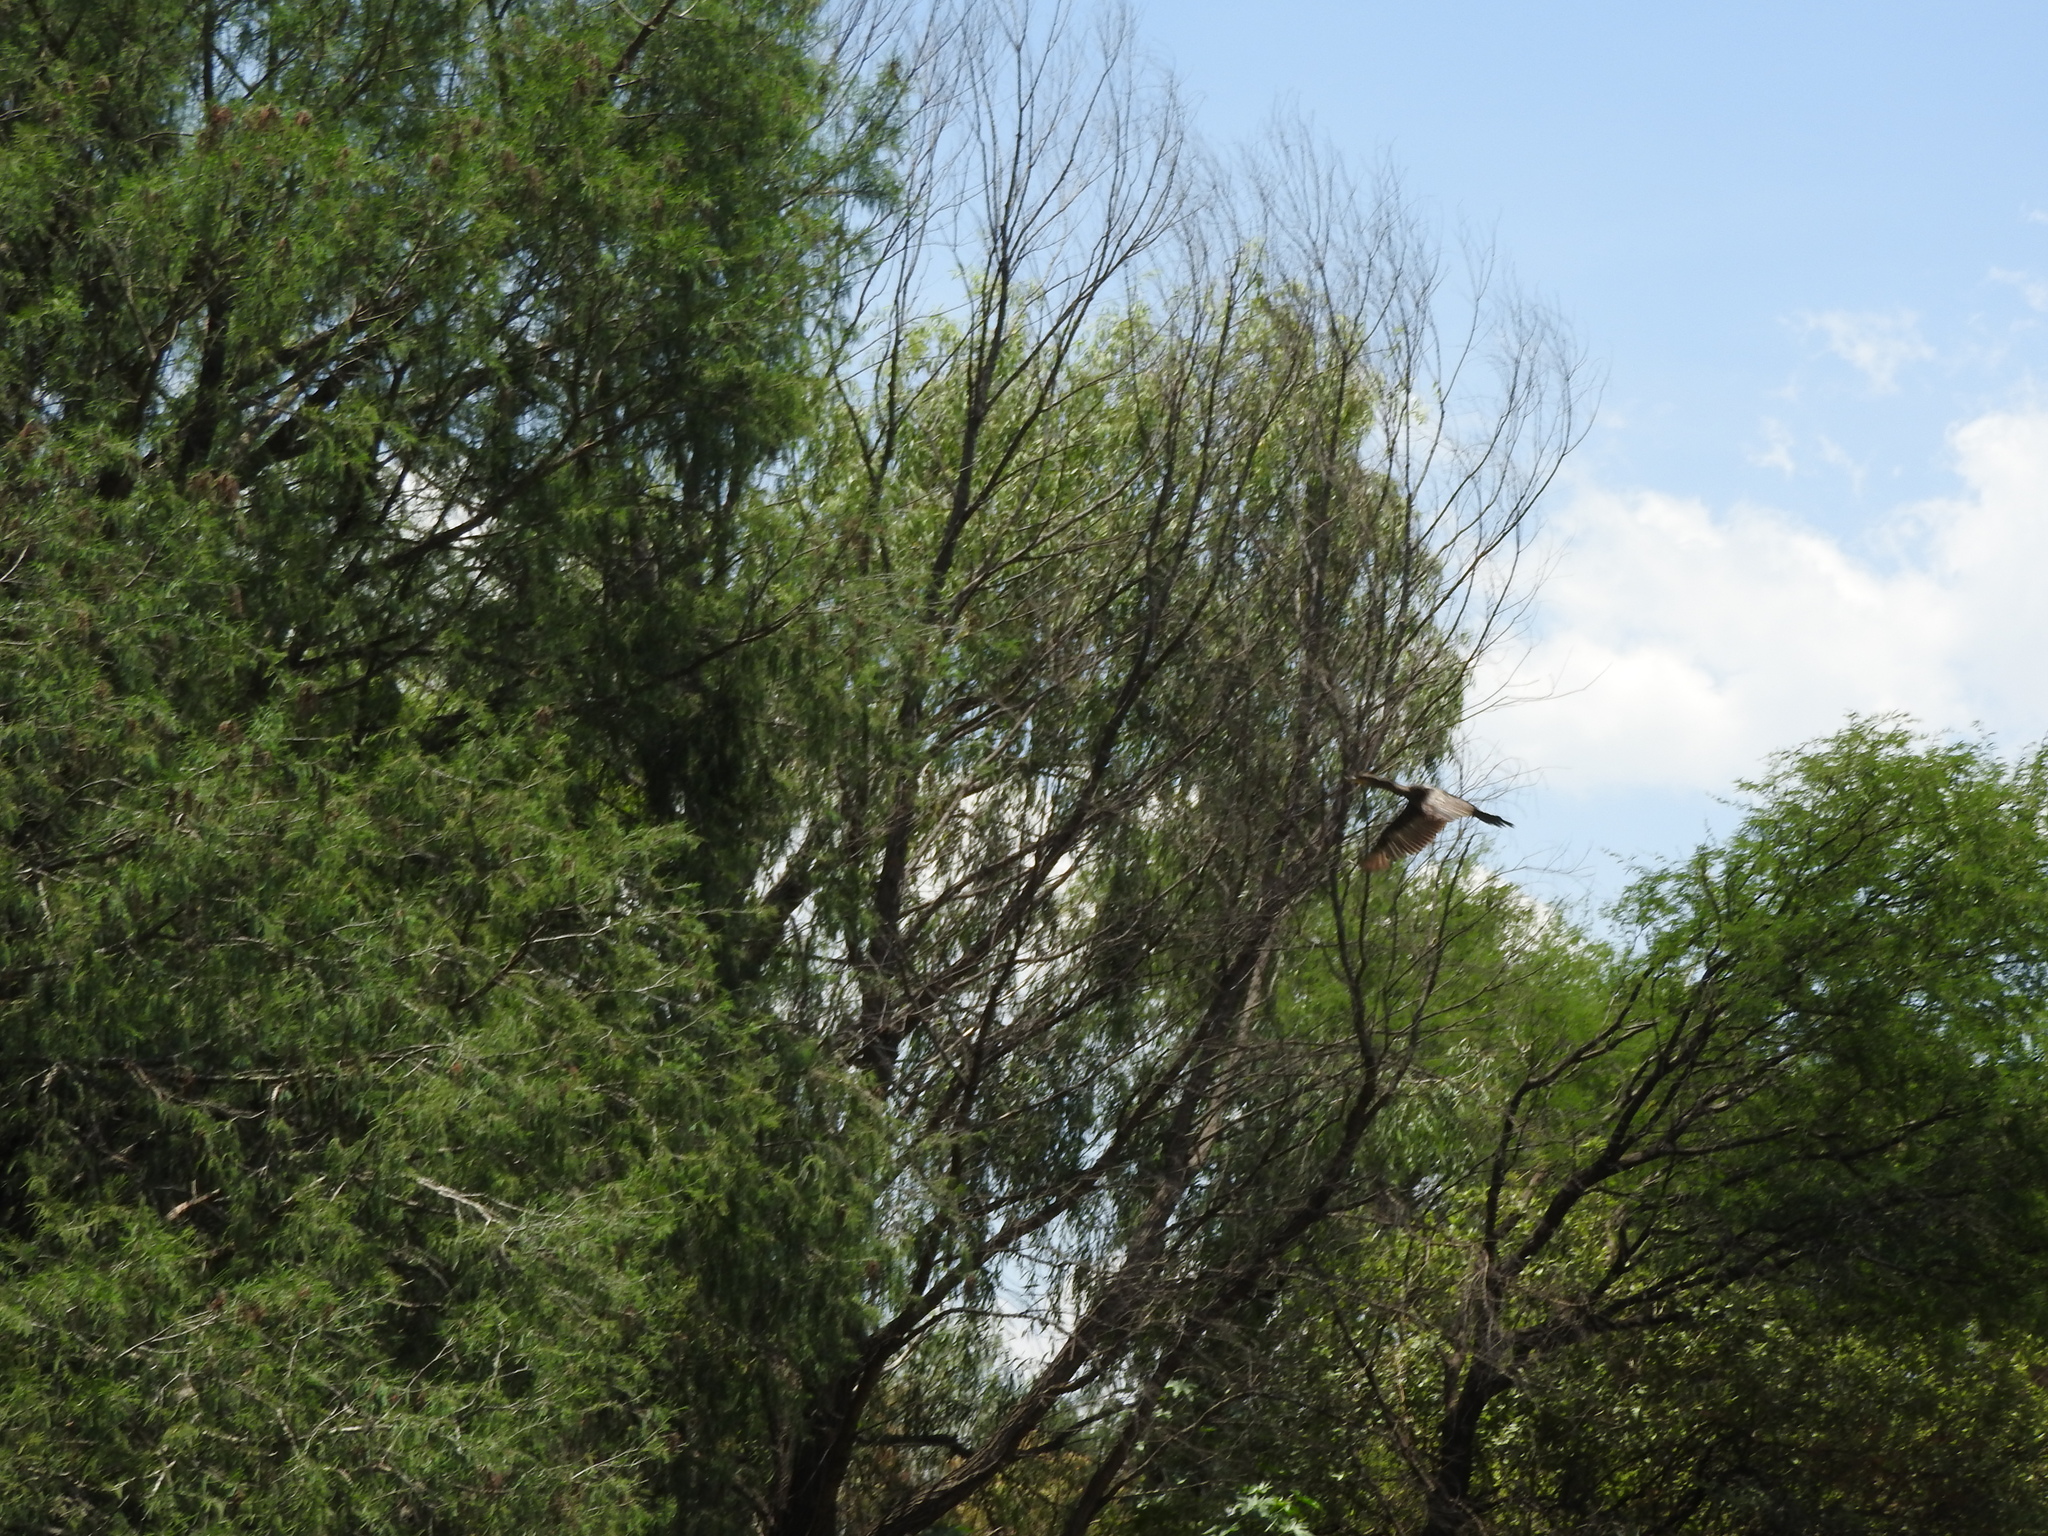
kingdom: Animalia
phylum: Chordata
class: Aves
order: Suliformes
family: Phalacrocoracidae
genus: Phalacrocorax
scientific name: Phalacrocorax brasilianus
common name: Neotropic cormorant
